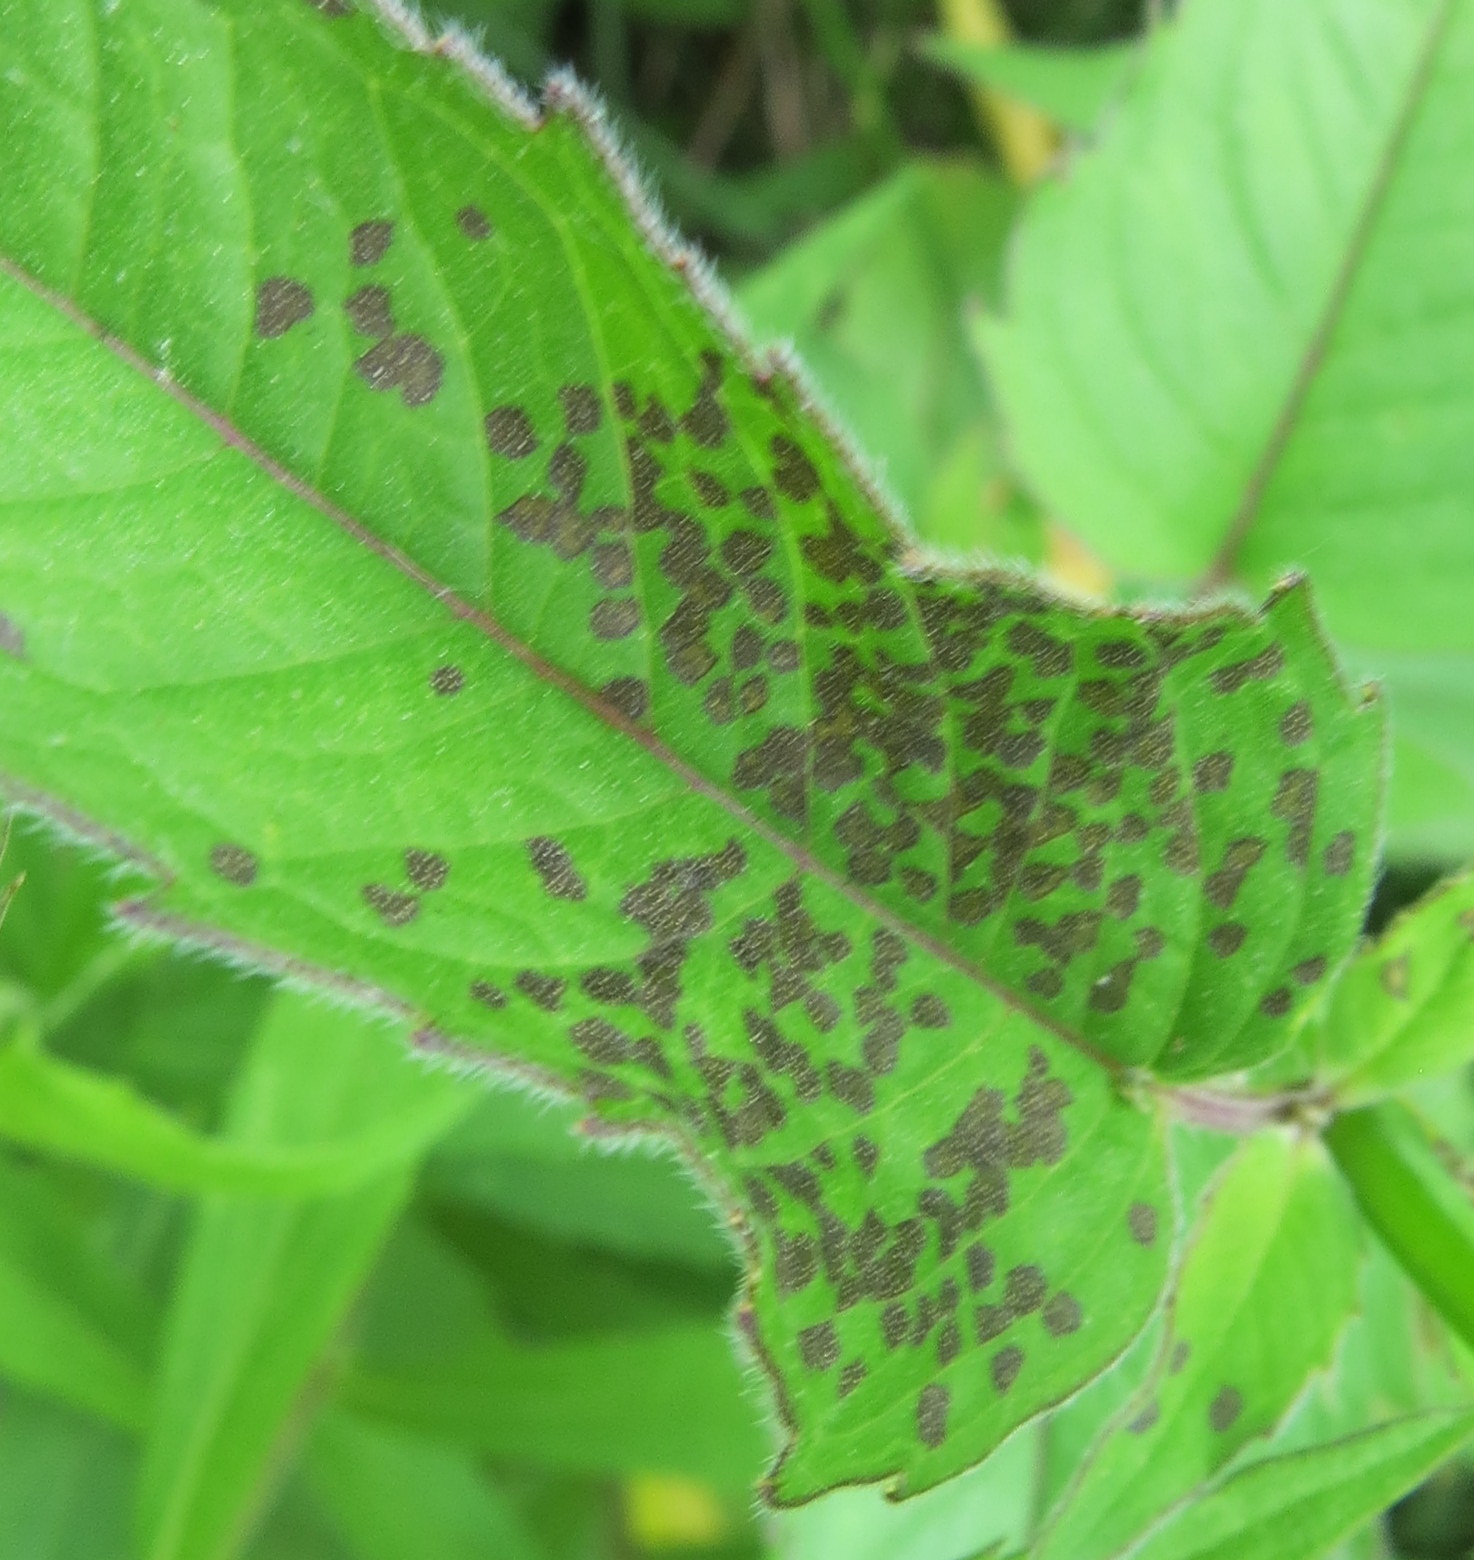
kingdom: Animalia
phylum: Arthropoda
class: Insecta
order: Hemiptera
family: Miridae
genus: Poecilocapsus
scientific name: Poecilocapsus lineatus
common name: Four-lined plant bug
